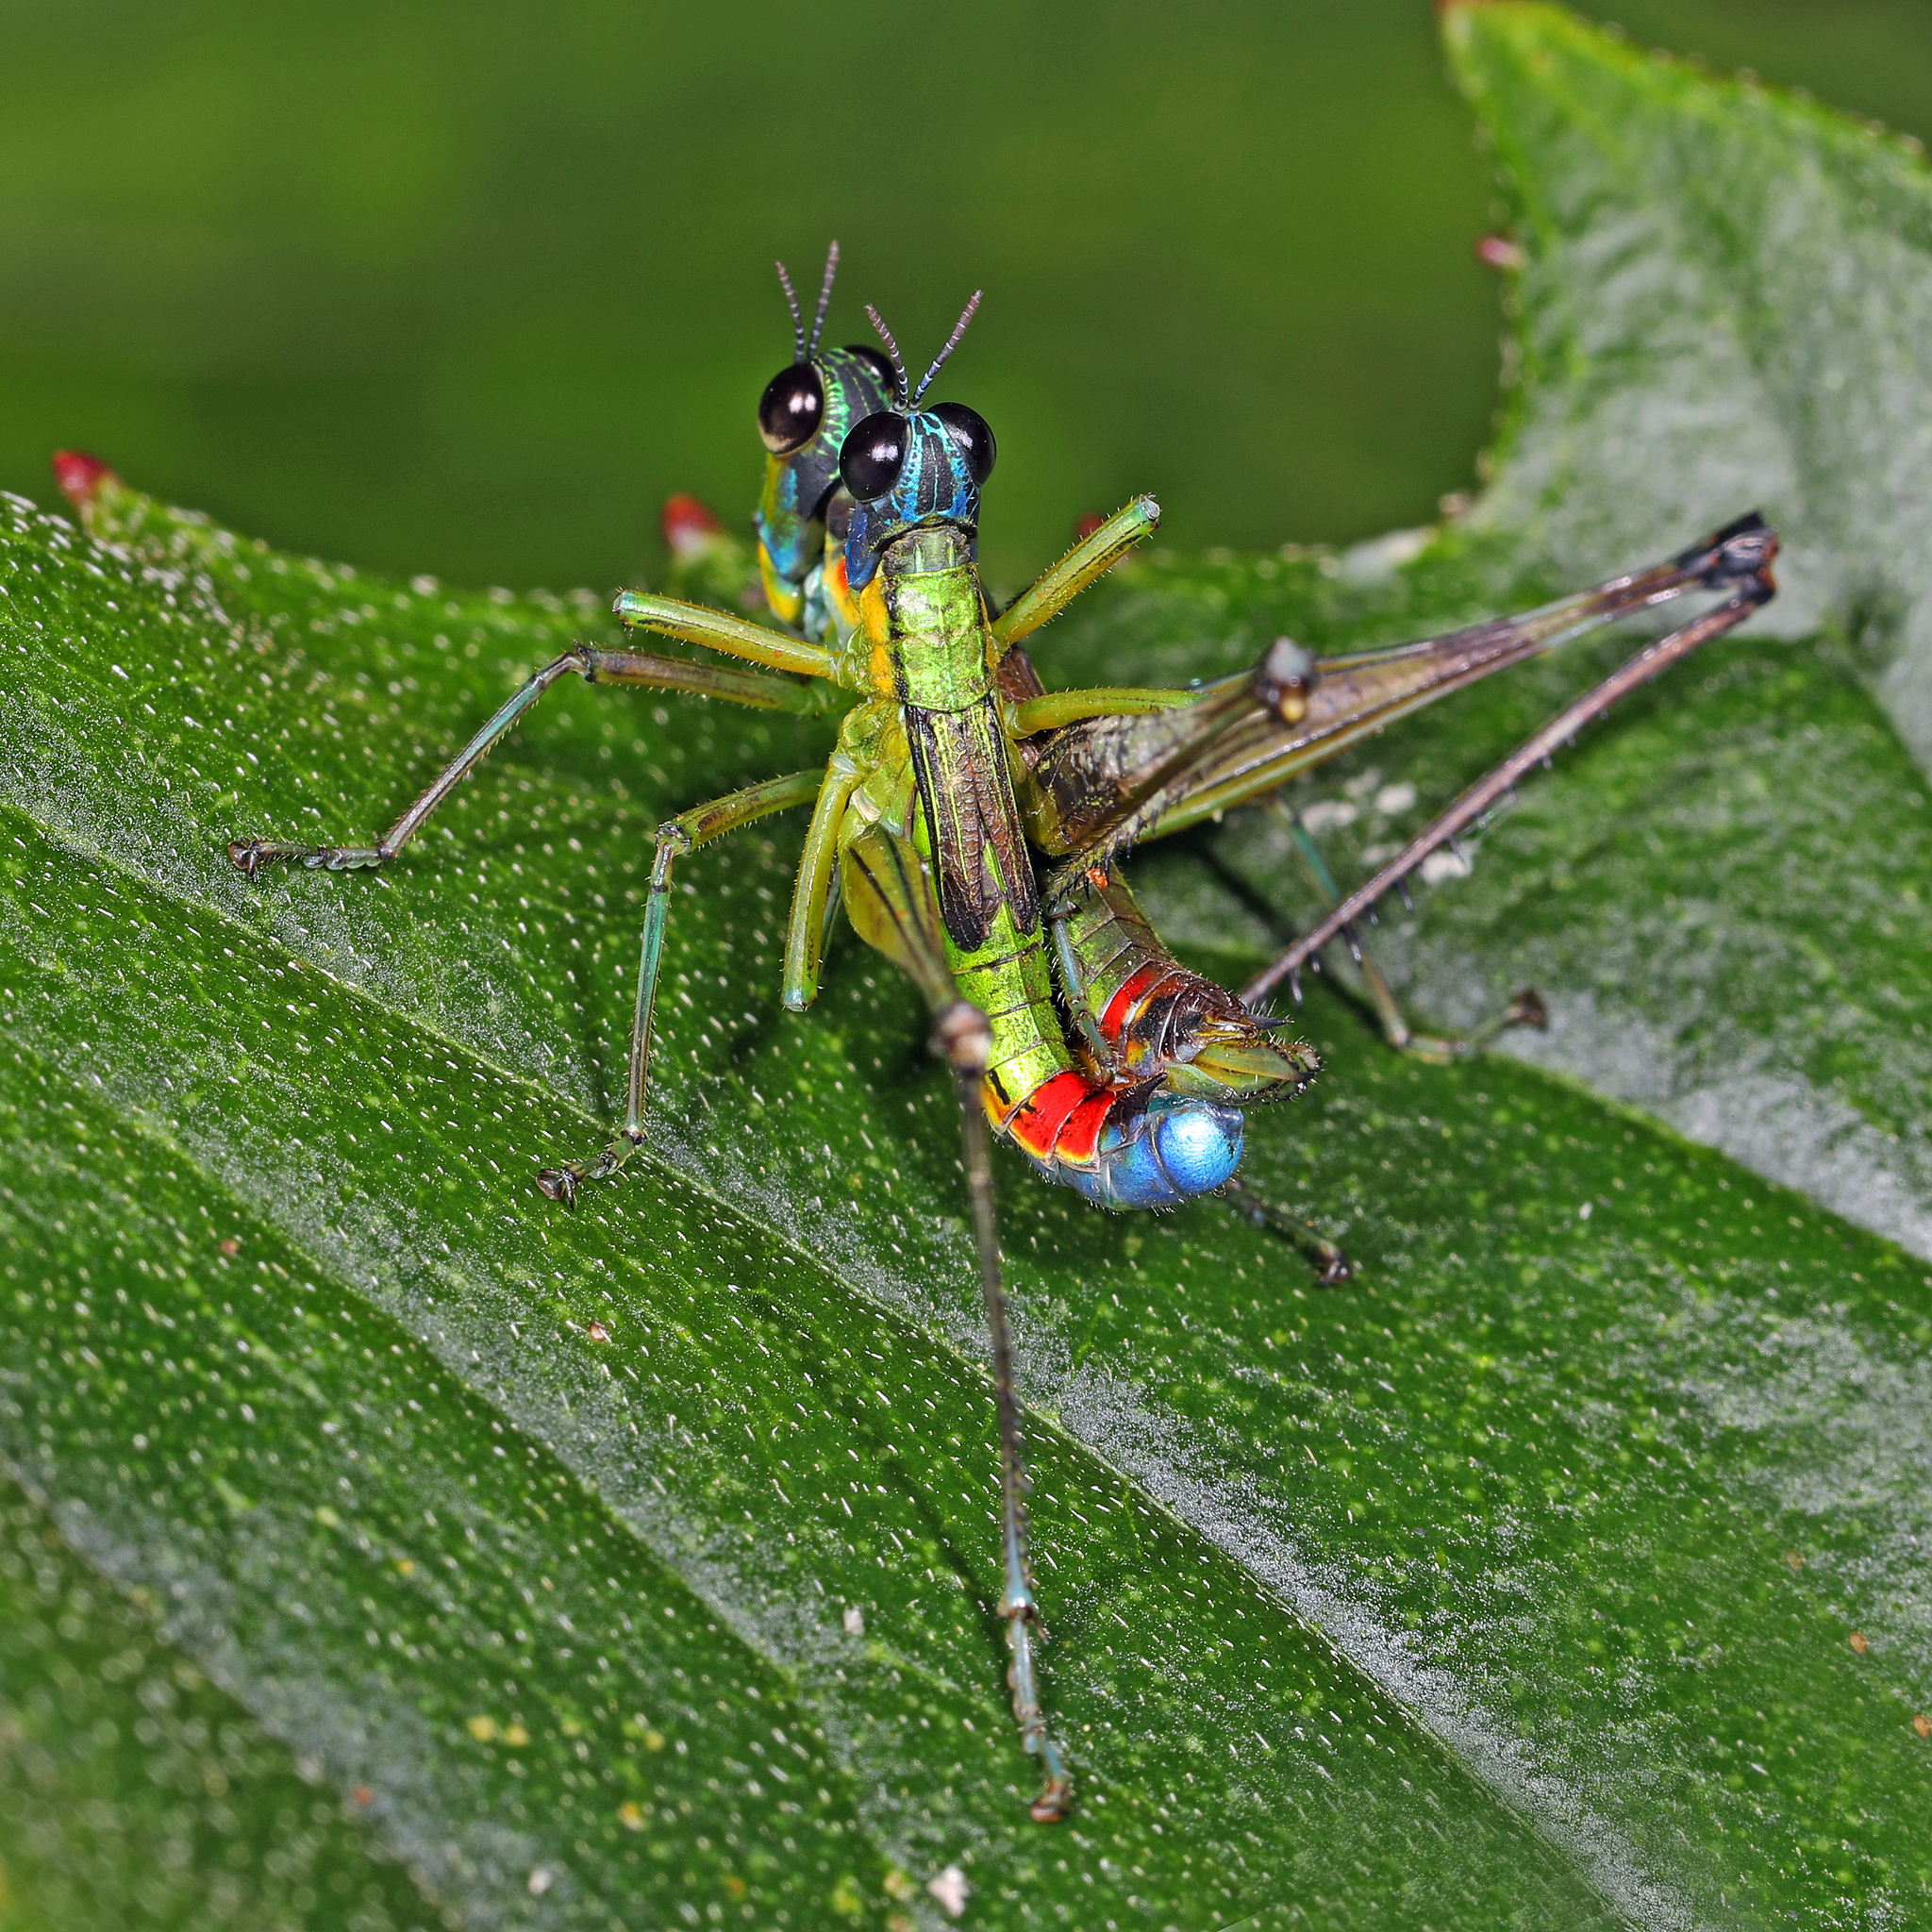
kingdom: Animalia
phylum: Arthropoda
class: Insecta
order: Orthoptera
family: Eumastacidae
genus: Eumastax
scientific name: Eumastax salazari
